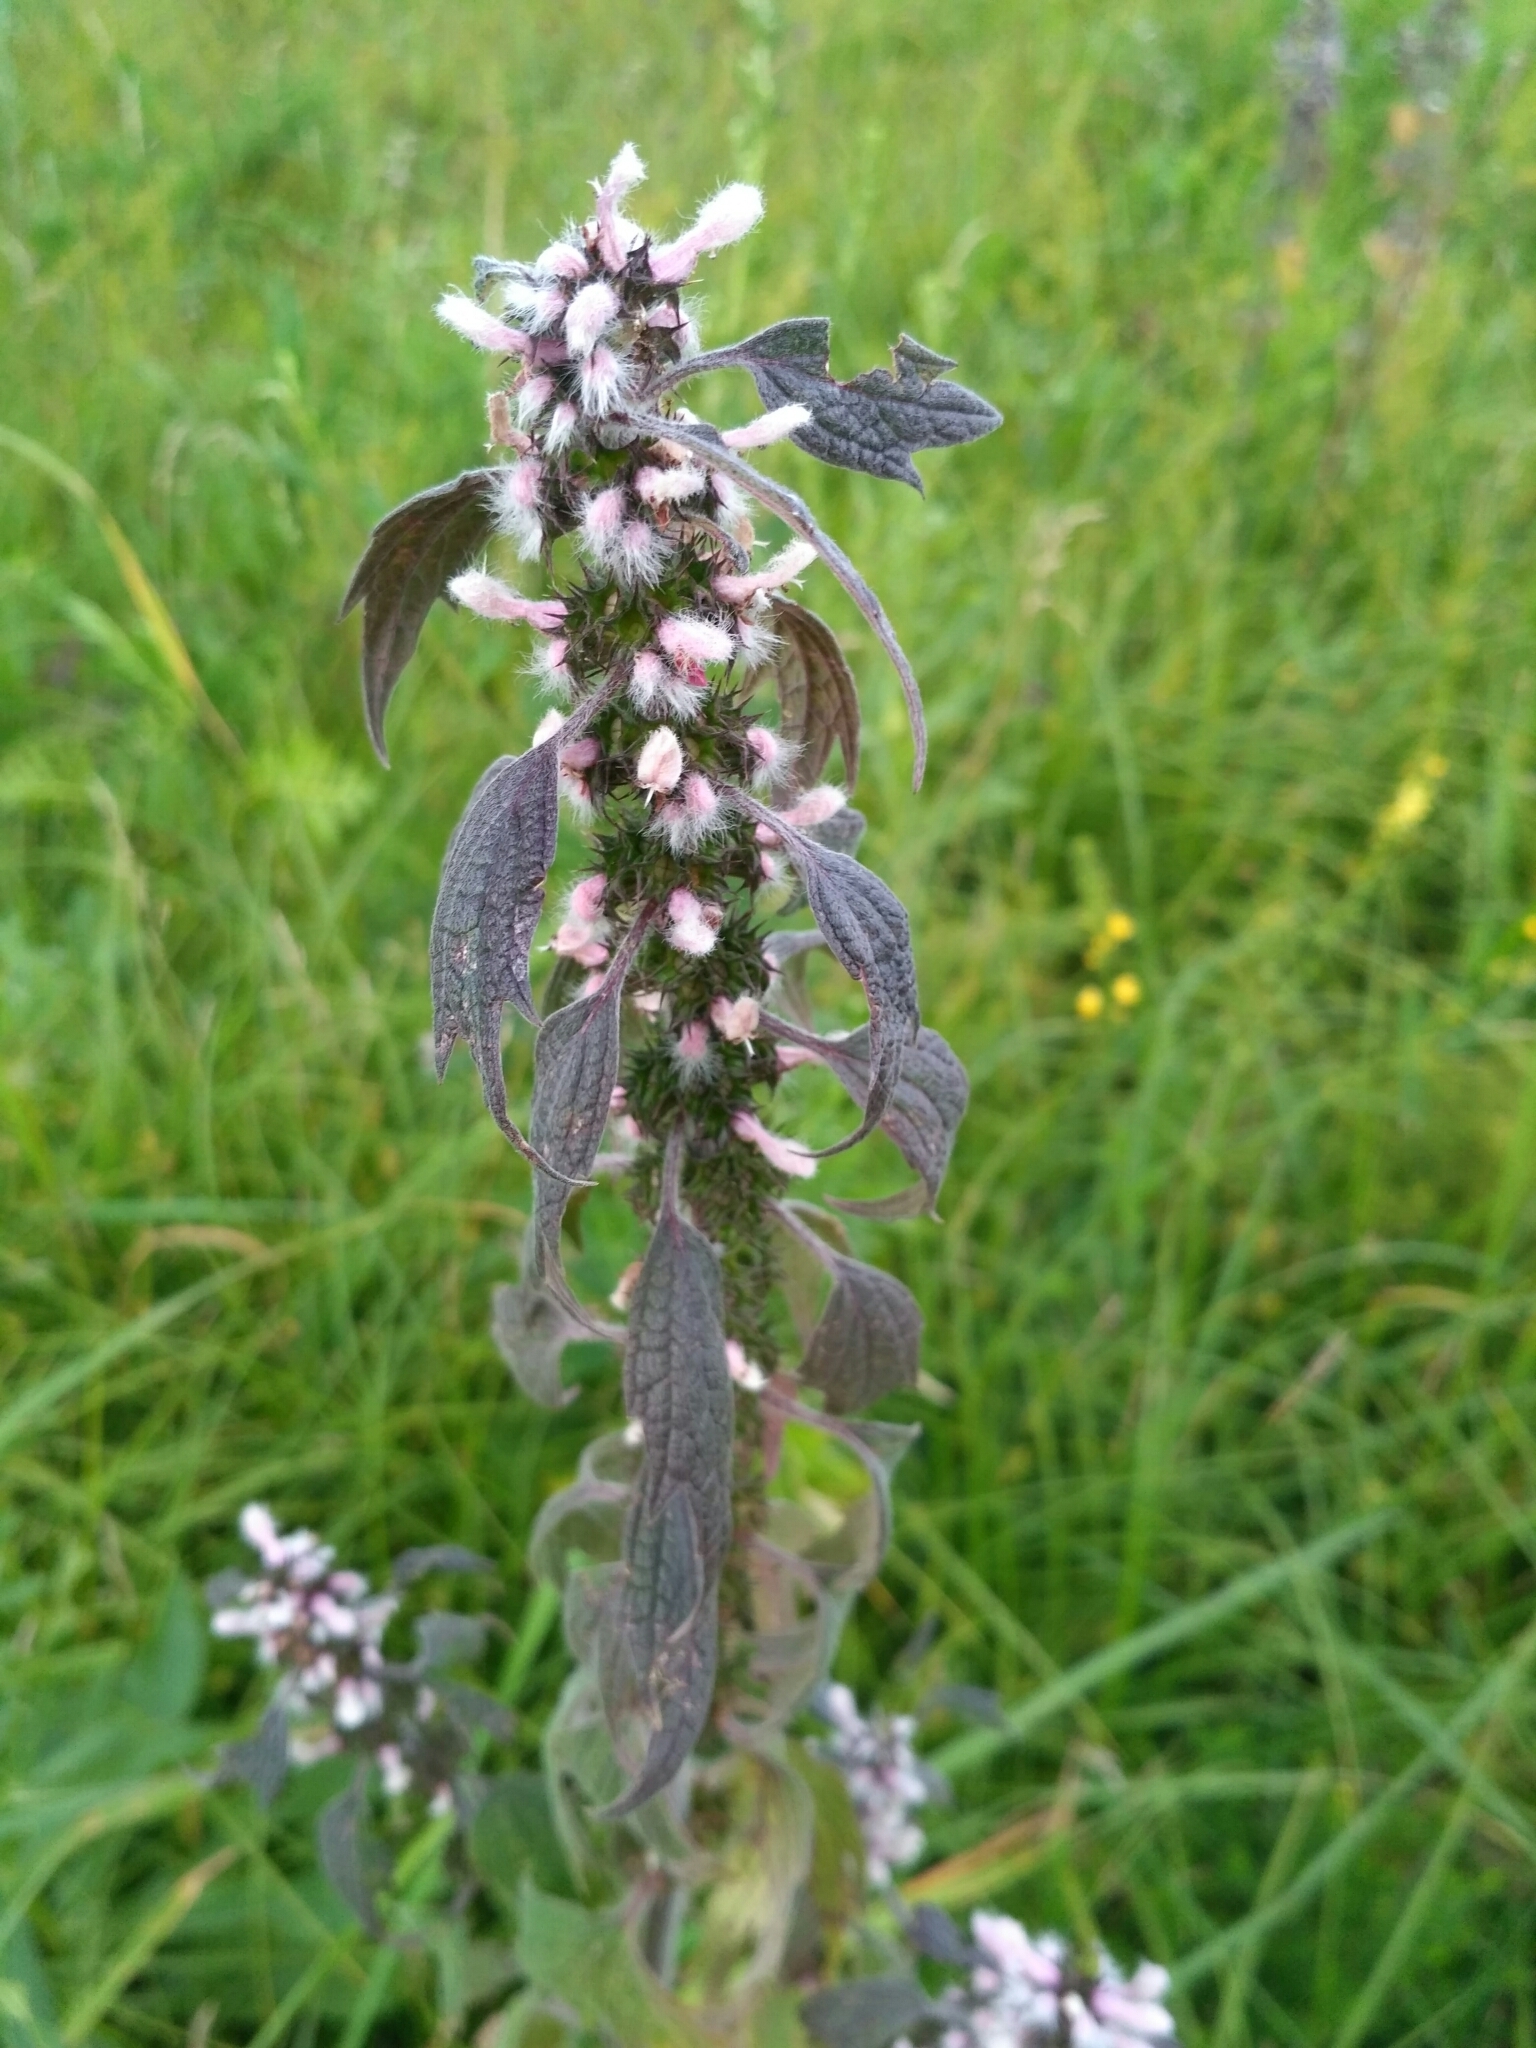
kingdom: Plantae
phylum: Tracheophyta
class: Magnoliopsida
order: Lamiales
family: Lamiaceae
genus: Leonurus
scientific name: Leonurus quinquelobatus
